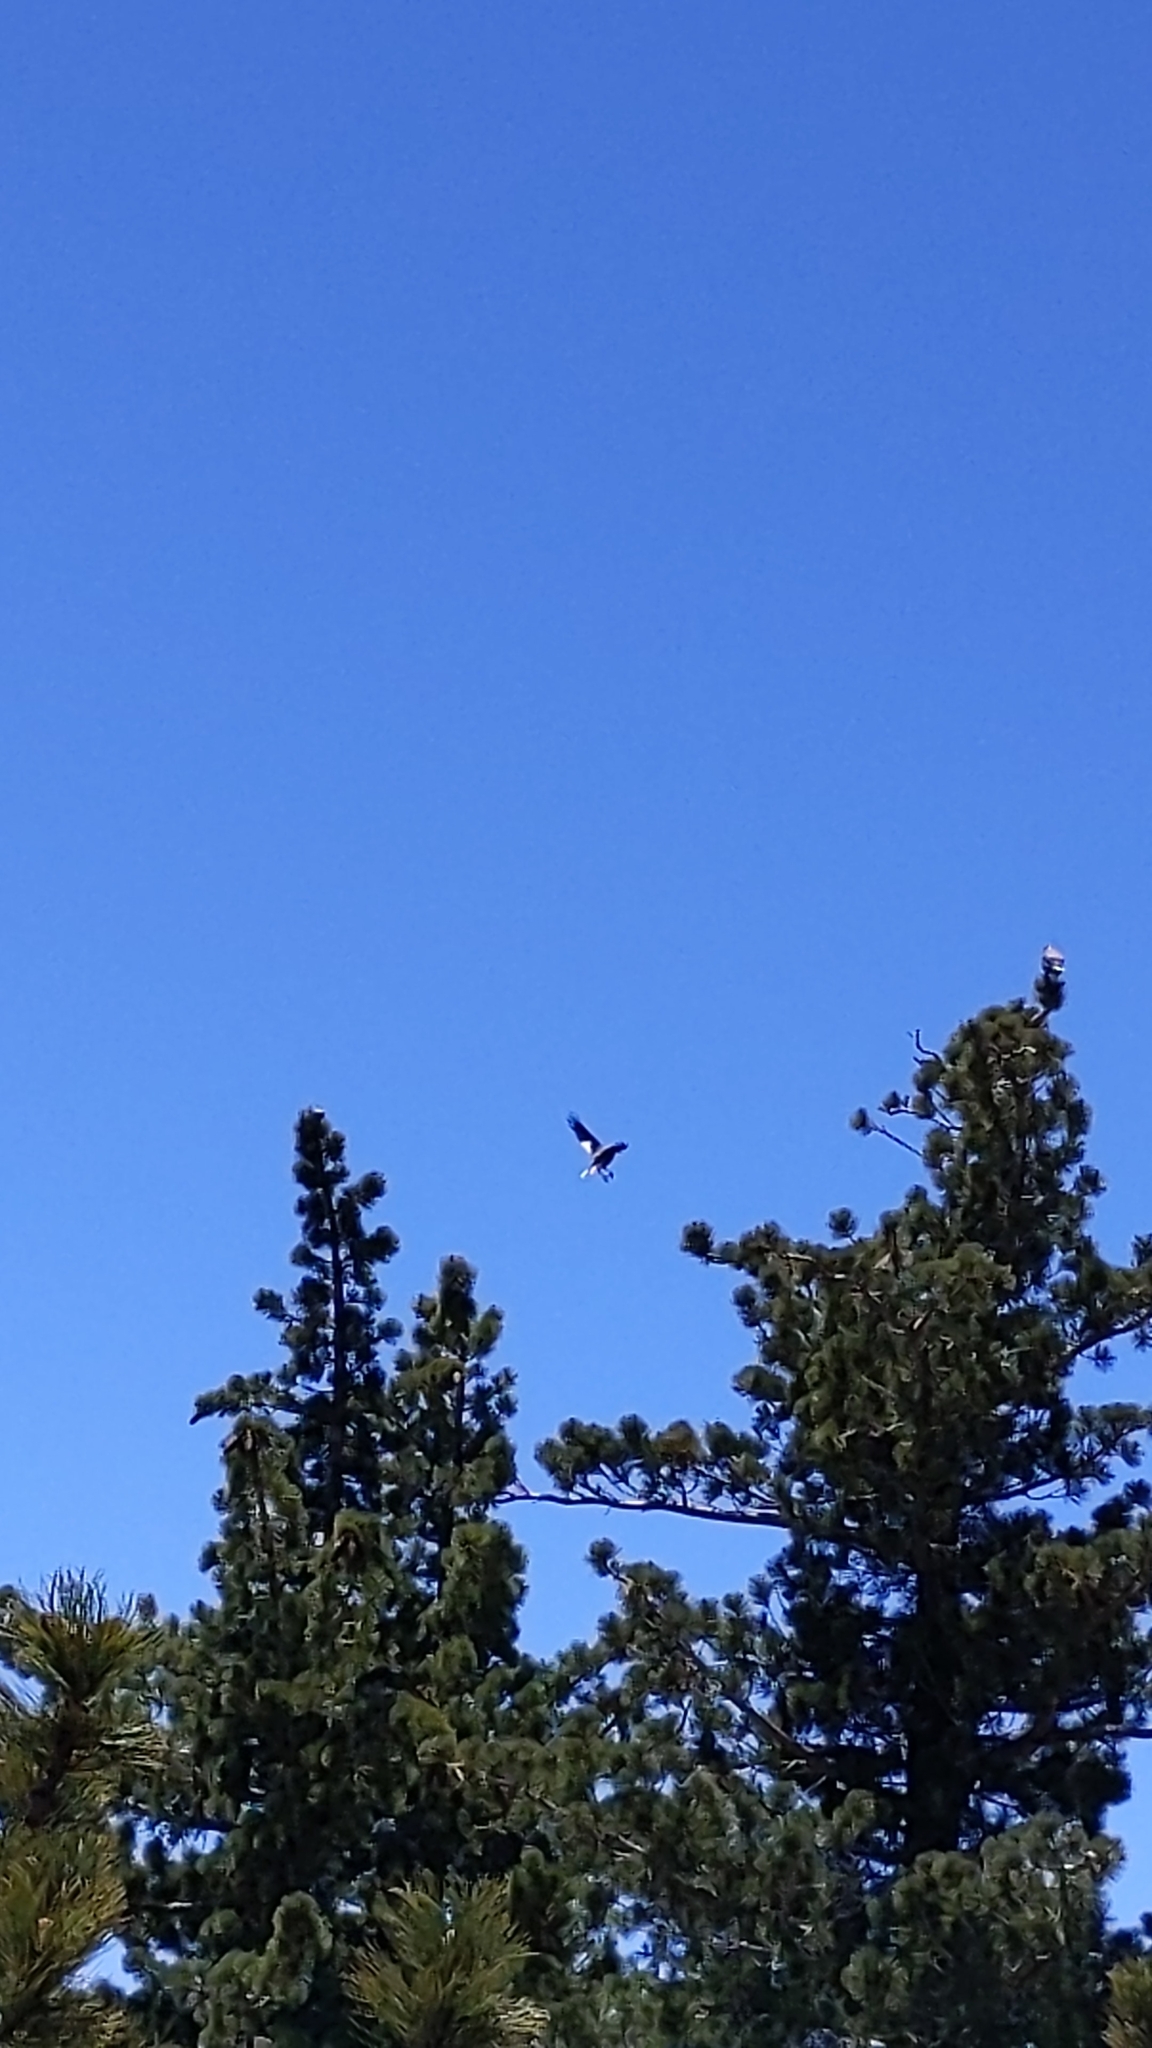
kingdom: Animalia
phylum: Chordata
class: Aves
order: Passeriformes
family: Corvidae
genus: Nucifraga
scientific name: Nucifraga columbiana
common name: Clark's nutcracker
